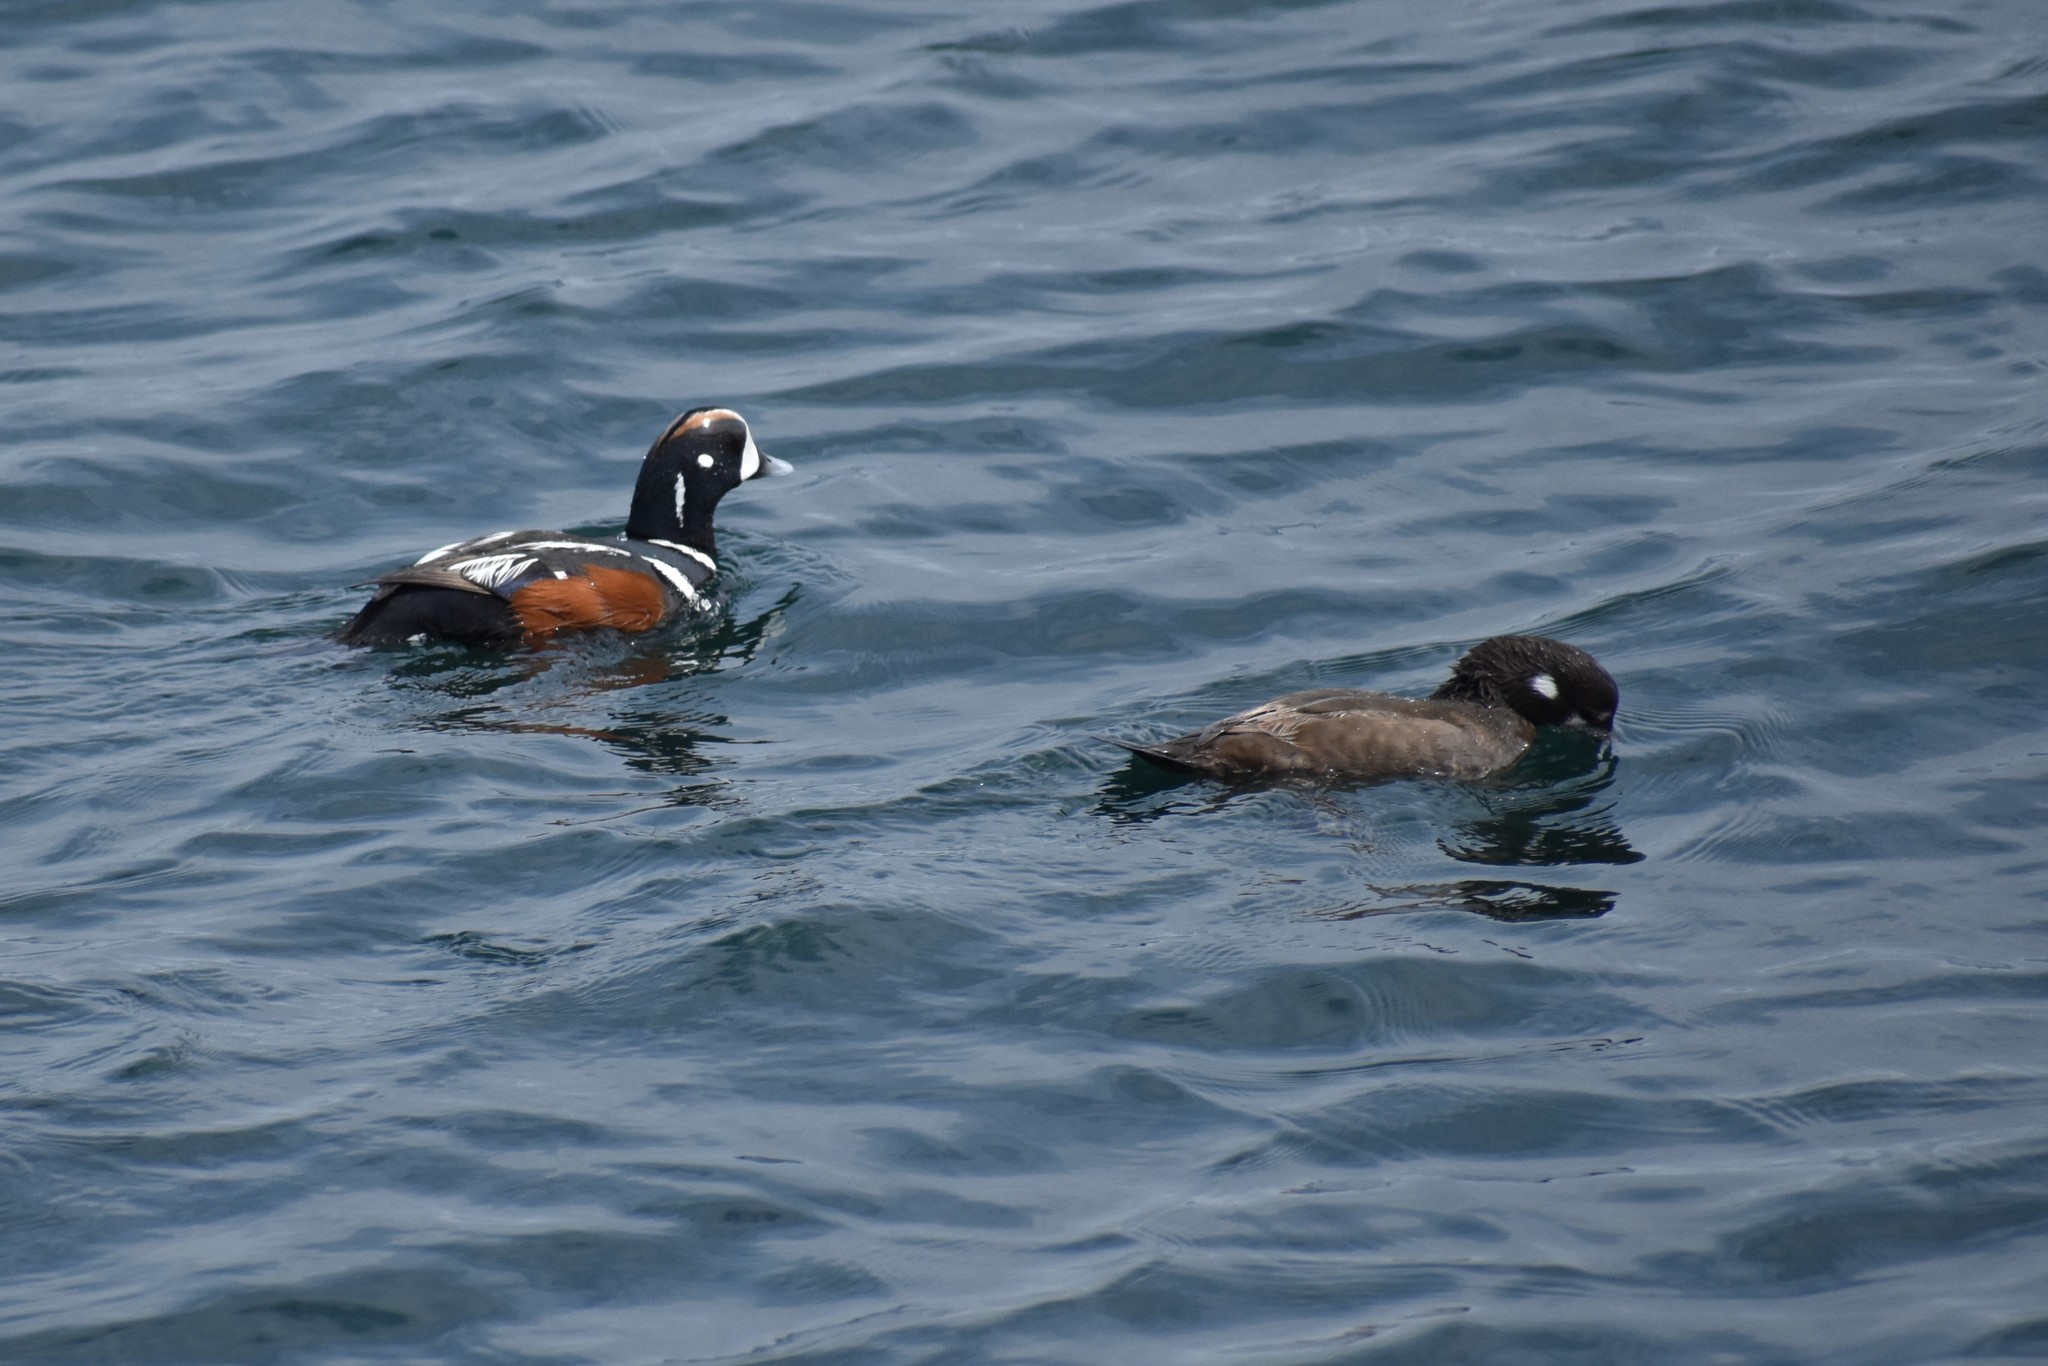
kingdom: Animalia
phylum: Chordata
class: Aves
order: Anseriformes
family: Anatidae
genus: Histrionicus
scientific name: Histrionicus histrionicus
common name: Harlequin duck
